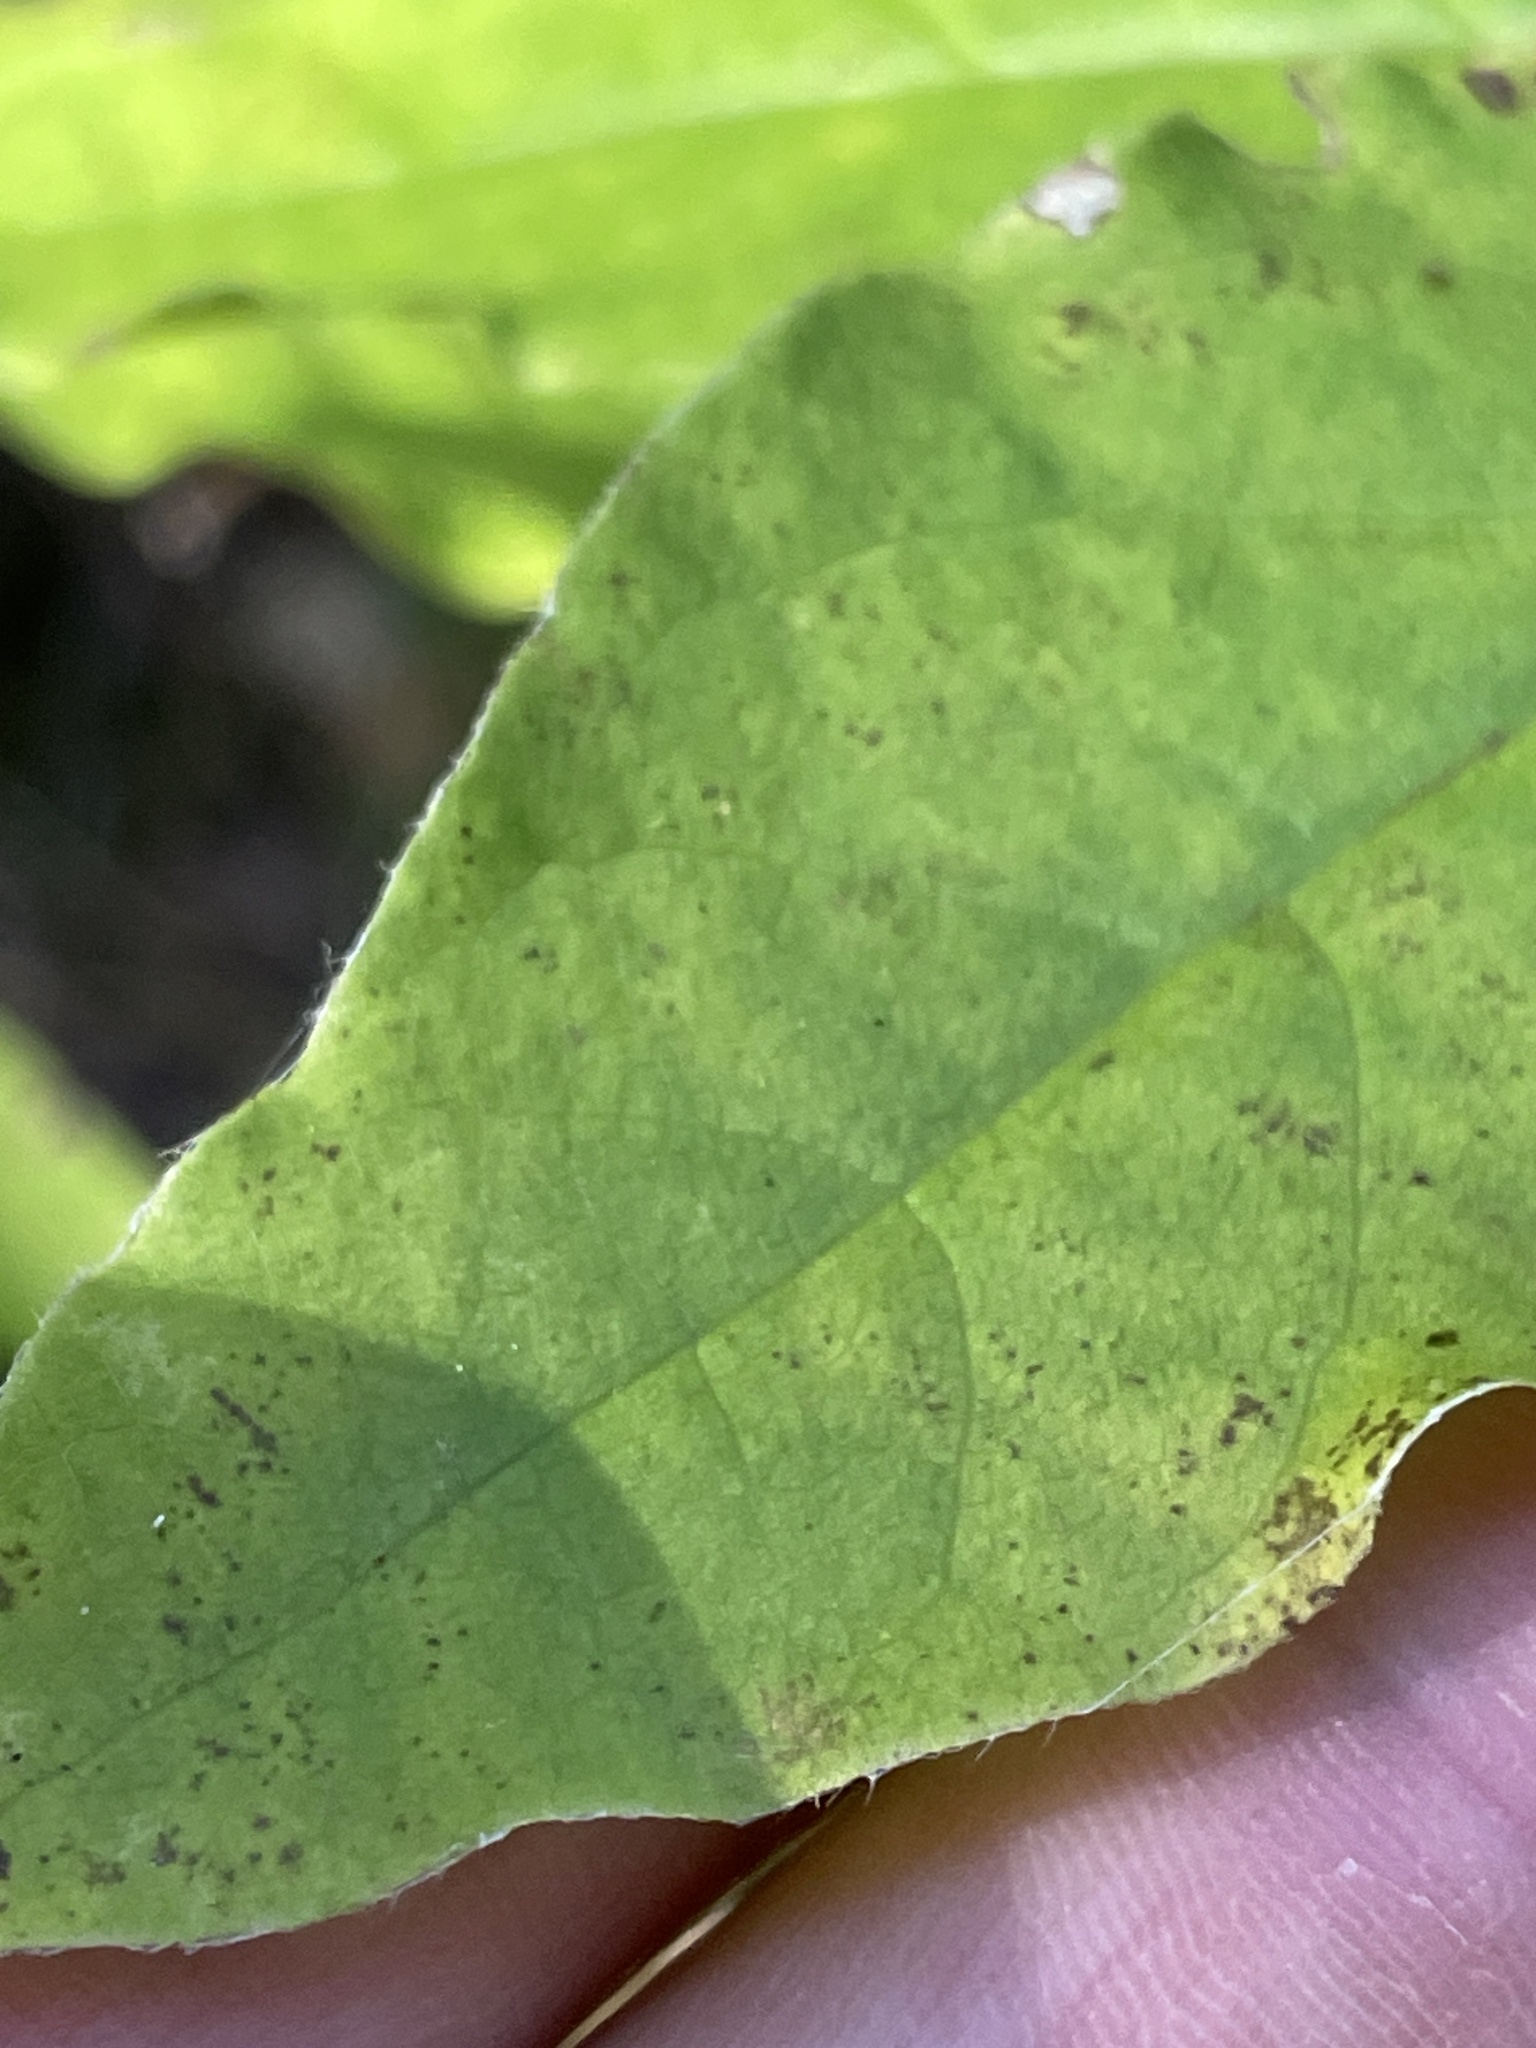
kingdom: Plantae
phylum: Tracheophyta
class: Magnoliopsida
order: Dipsacales
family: Caprifoliaceae
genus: Lonicera
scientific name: Lonicera canadensis
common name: American fly-honeysuckle
